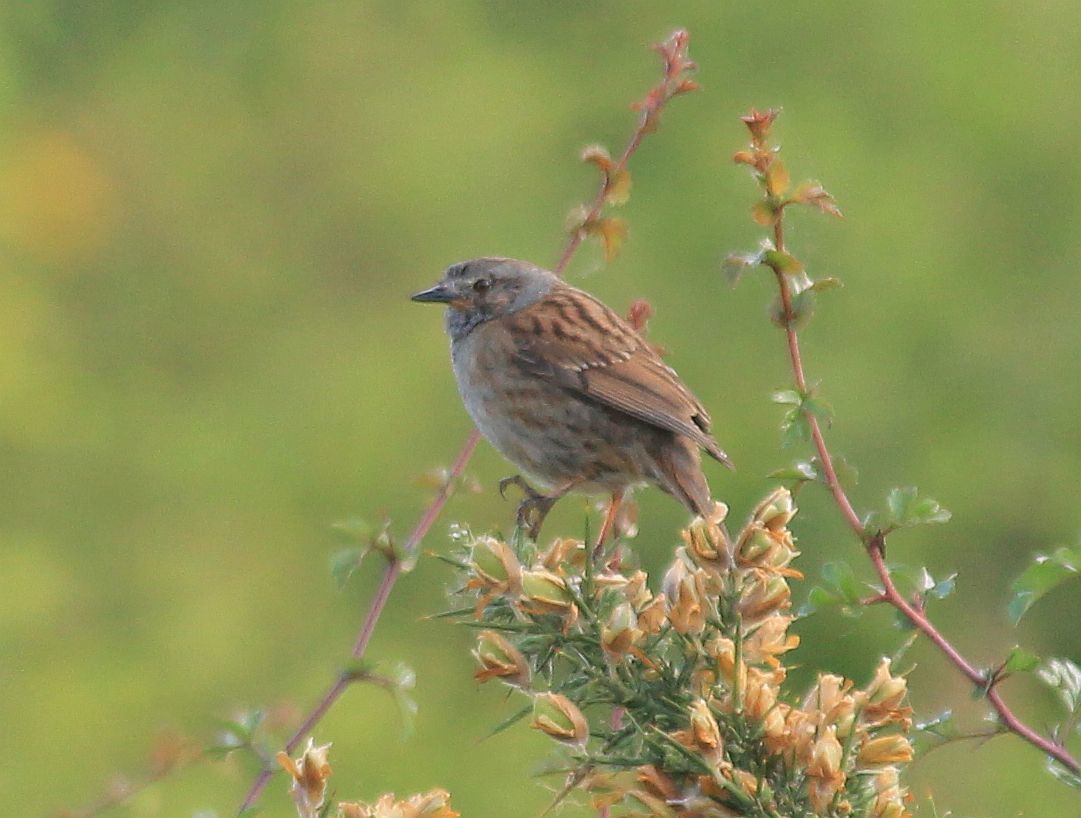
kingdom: Animalia
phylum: Chordata
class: Aves
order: Passeriformes
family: Prunellidae
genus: Prunella
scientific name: Prunella modularis
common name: Dunnock
